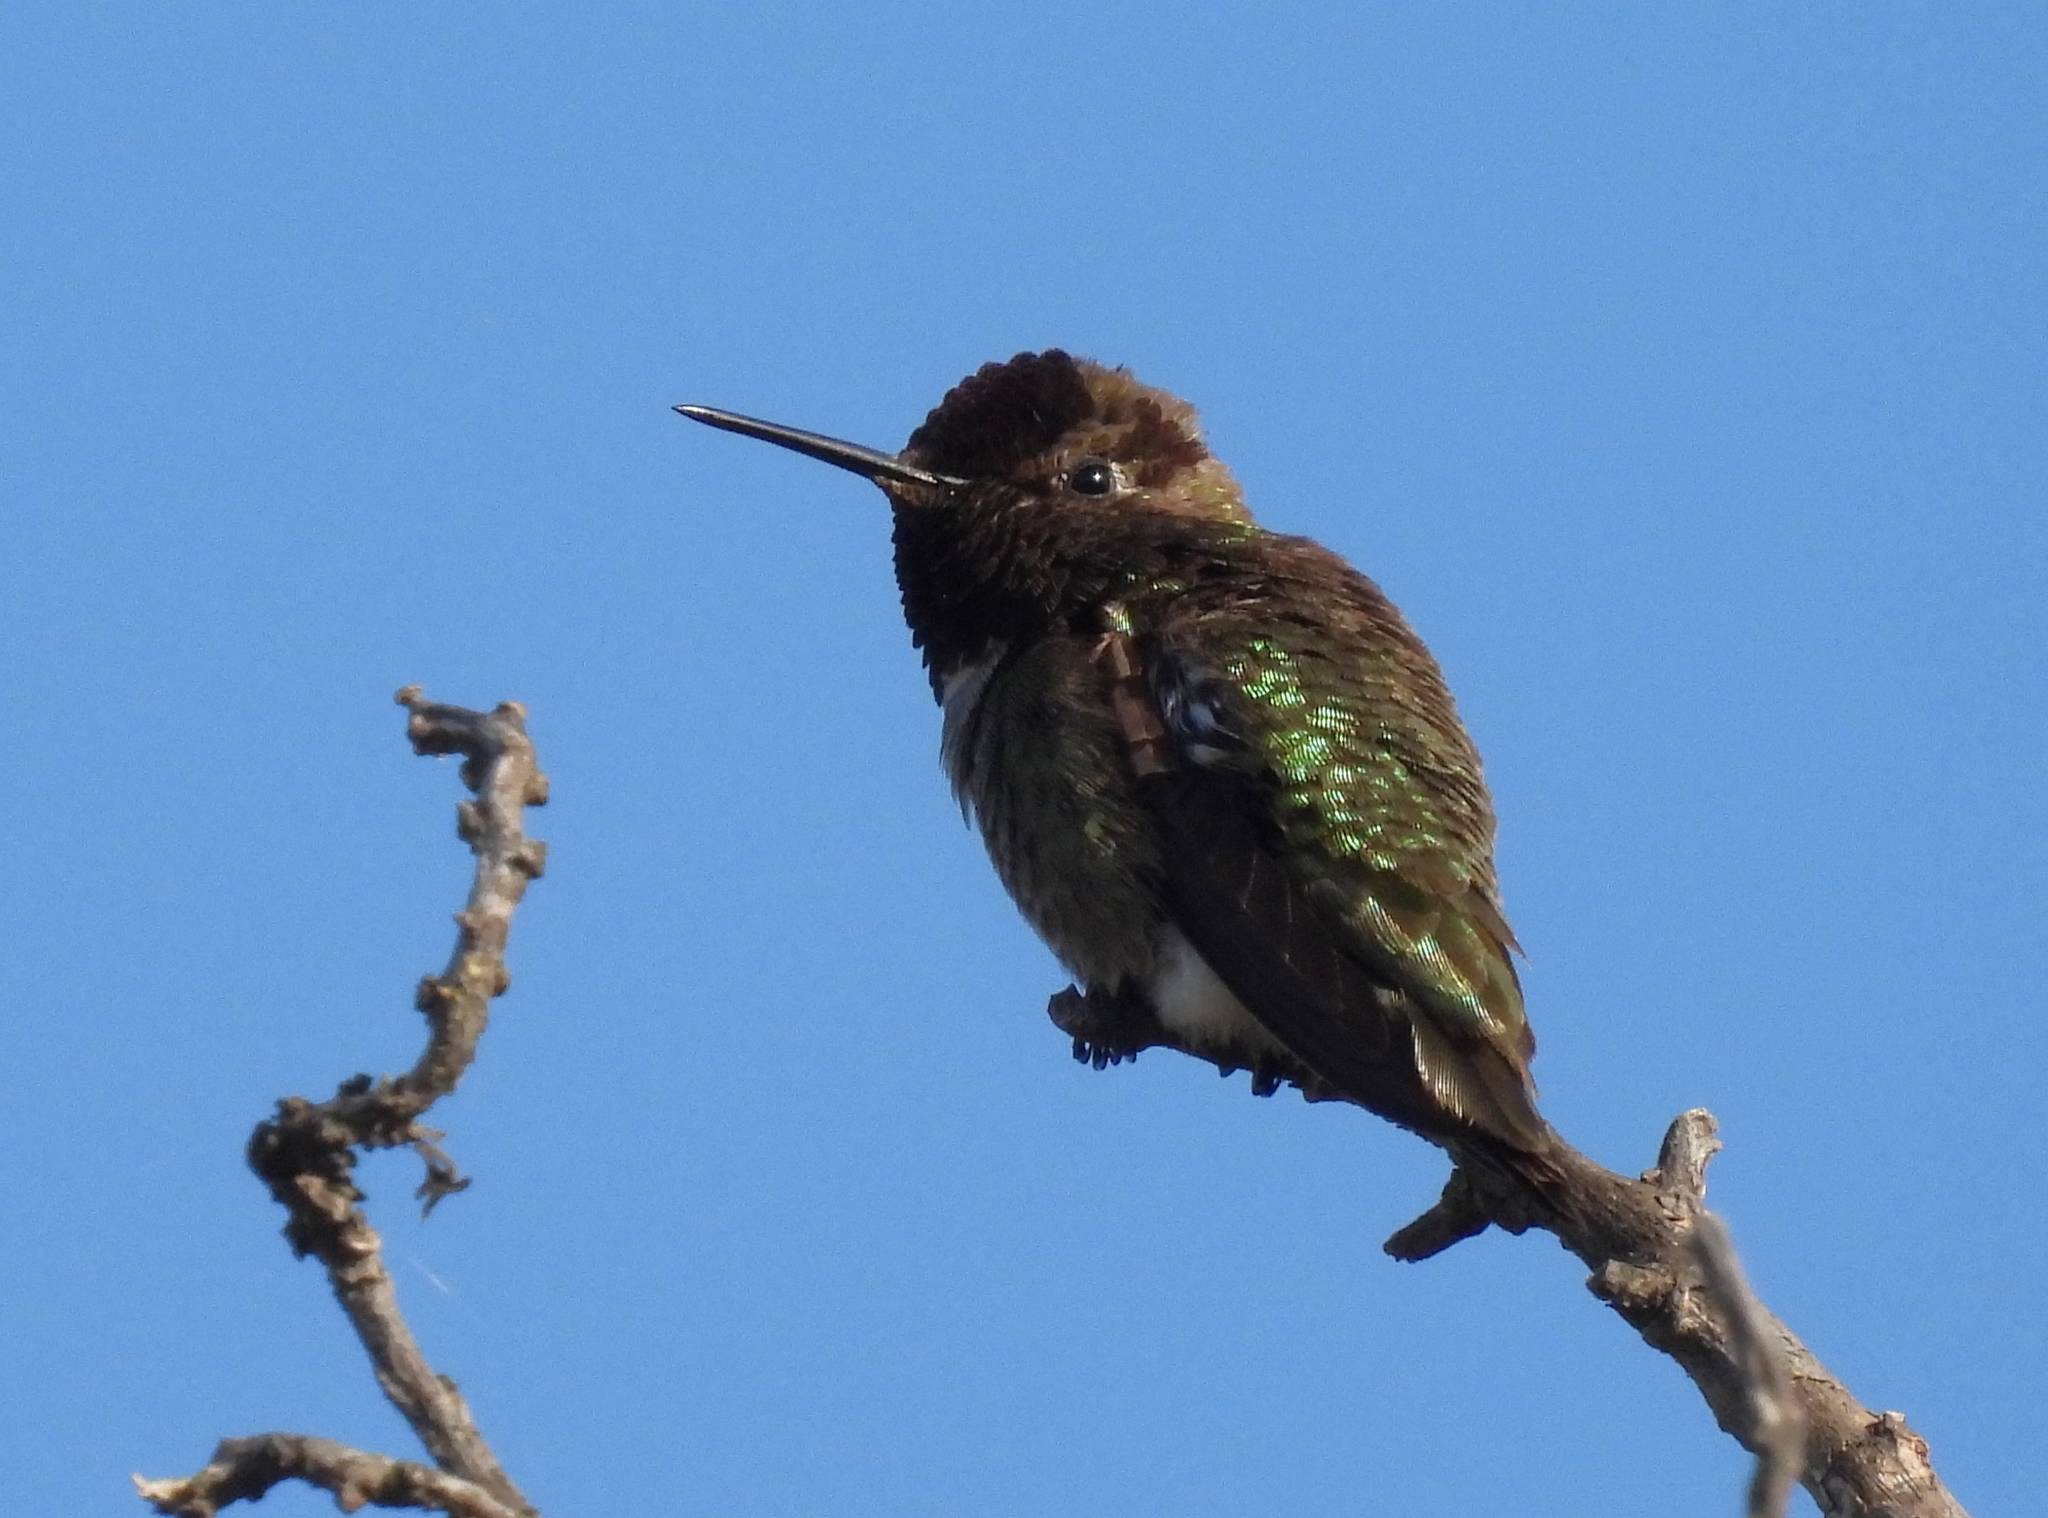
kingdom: Animalia
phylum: Chordata
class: Aves
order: Apodiformes
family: Trochilidae
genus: Calypte
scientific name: Calypte anna
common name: Anna's hummingbird
